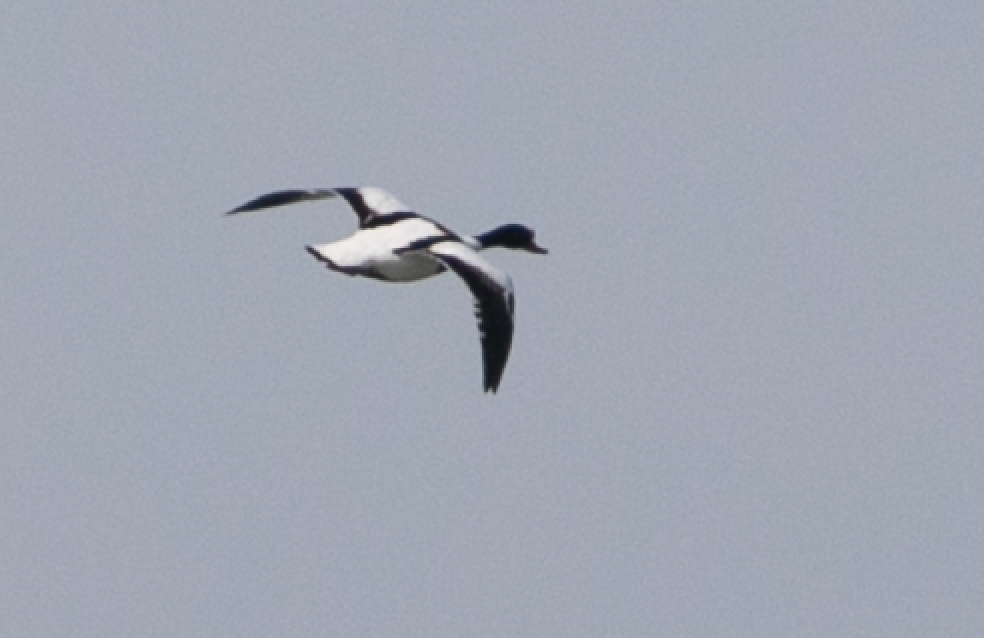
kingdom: Animalia
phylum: Chordata
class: Aves
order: Anseriformes
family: Anatidae
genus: Tadorna
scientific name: Tadorna tadorna
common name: Common shelduck
